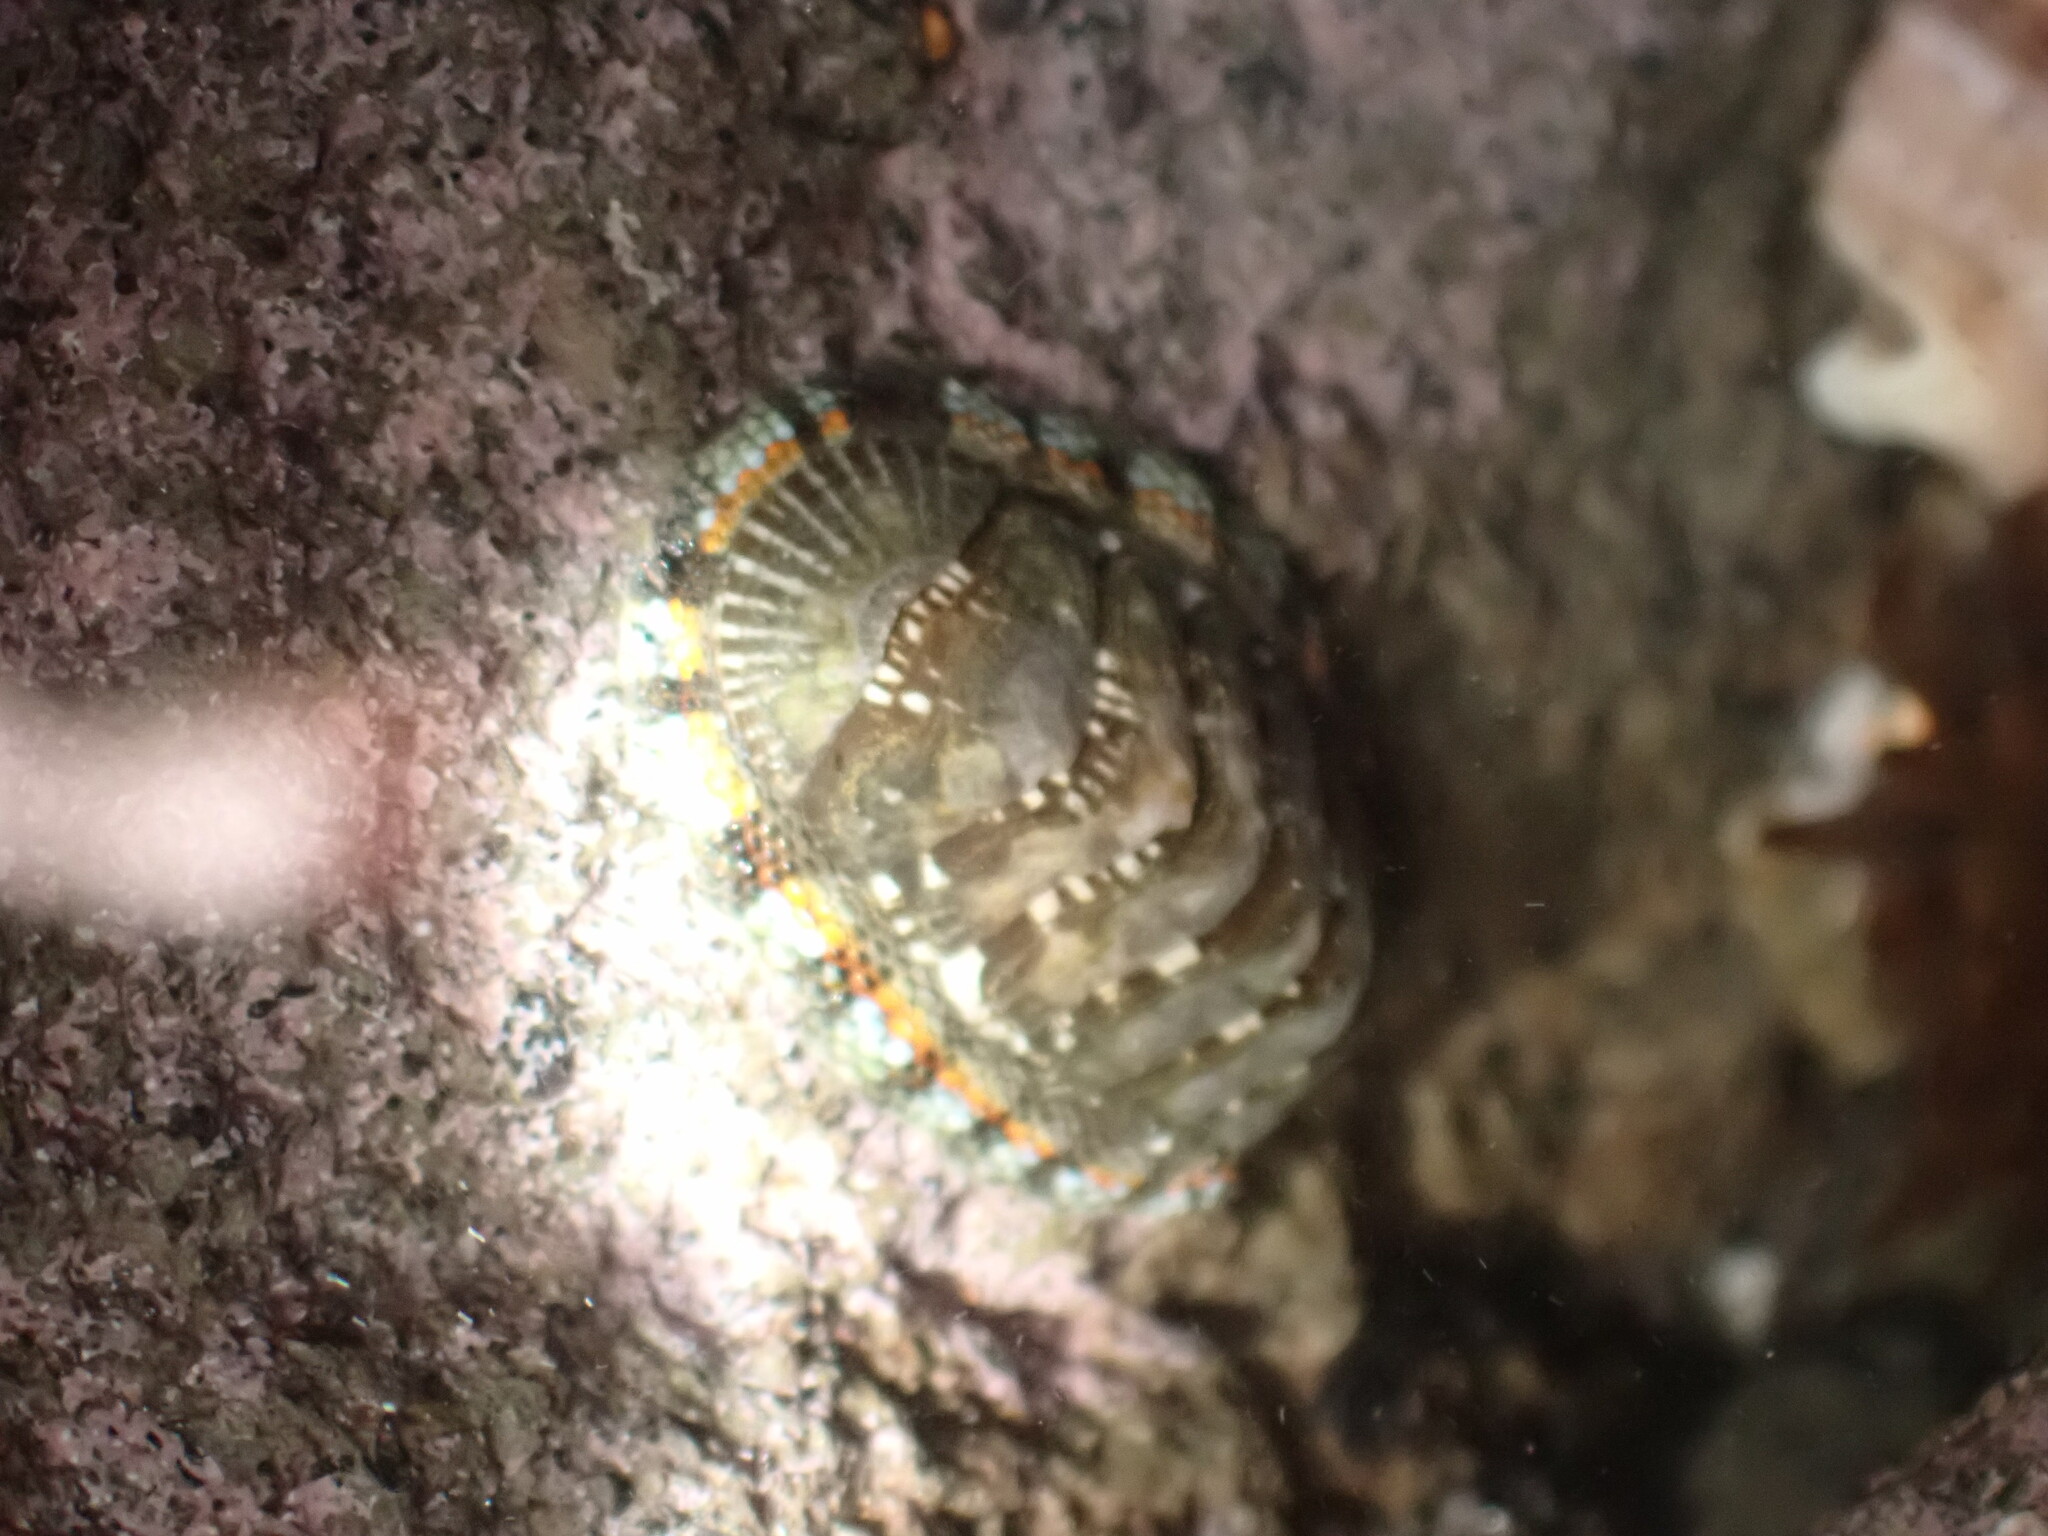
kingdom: Animalia
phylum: Mollusca
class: Polyplacophora
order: Chitonida
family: Chitonidae
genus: Sypharochiton
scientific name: Sypharochiton sinclairi
